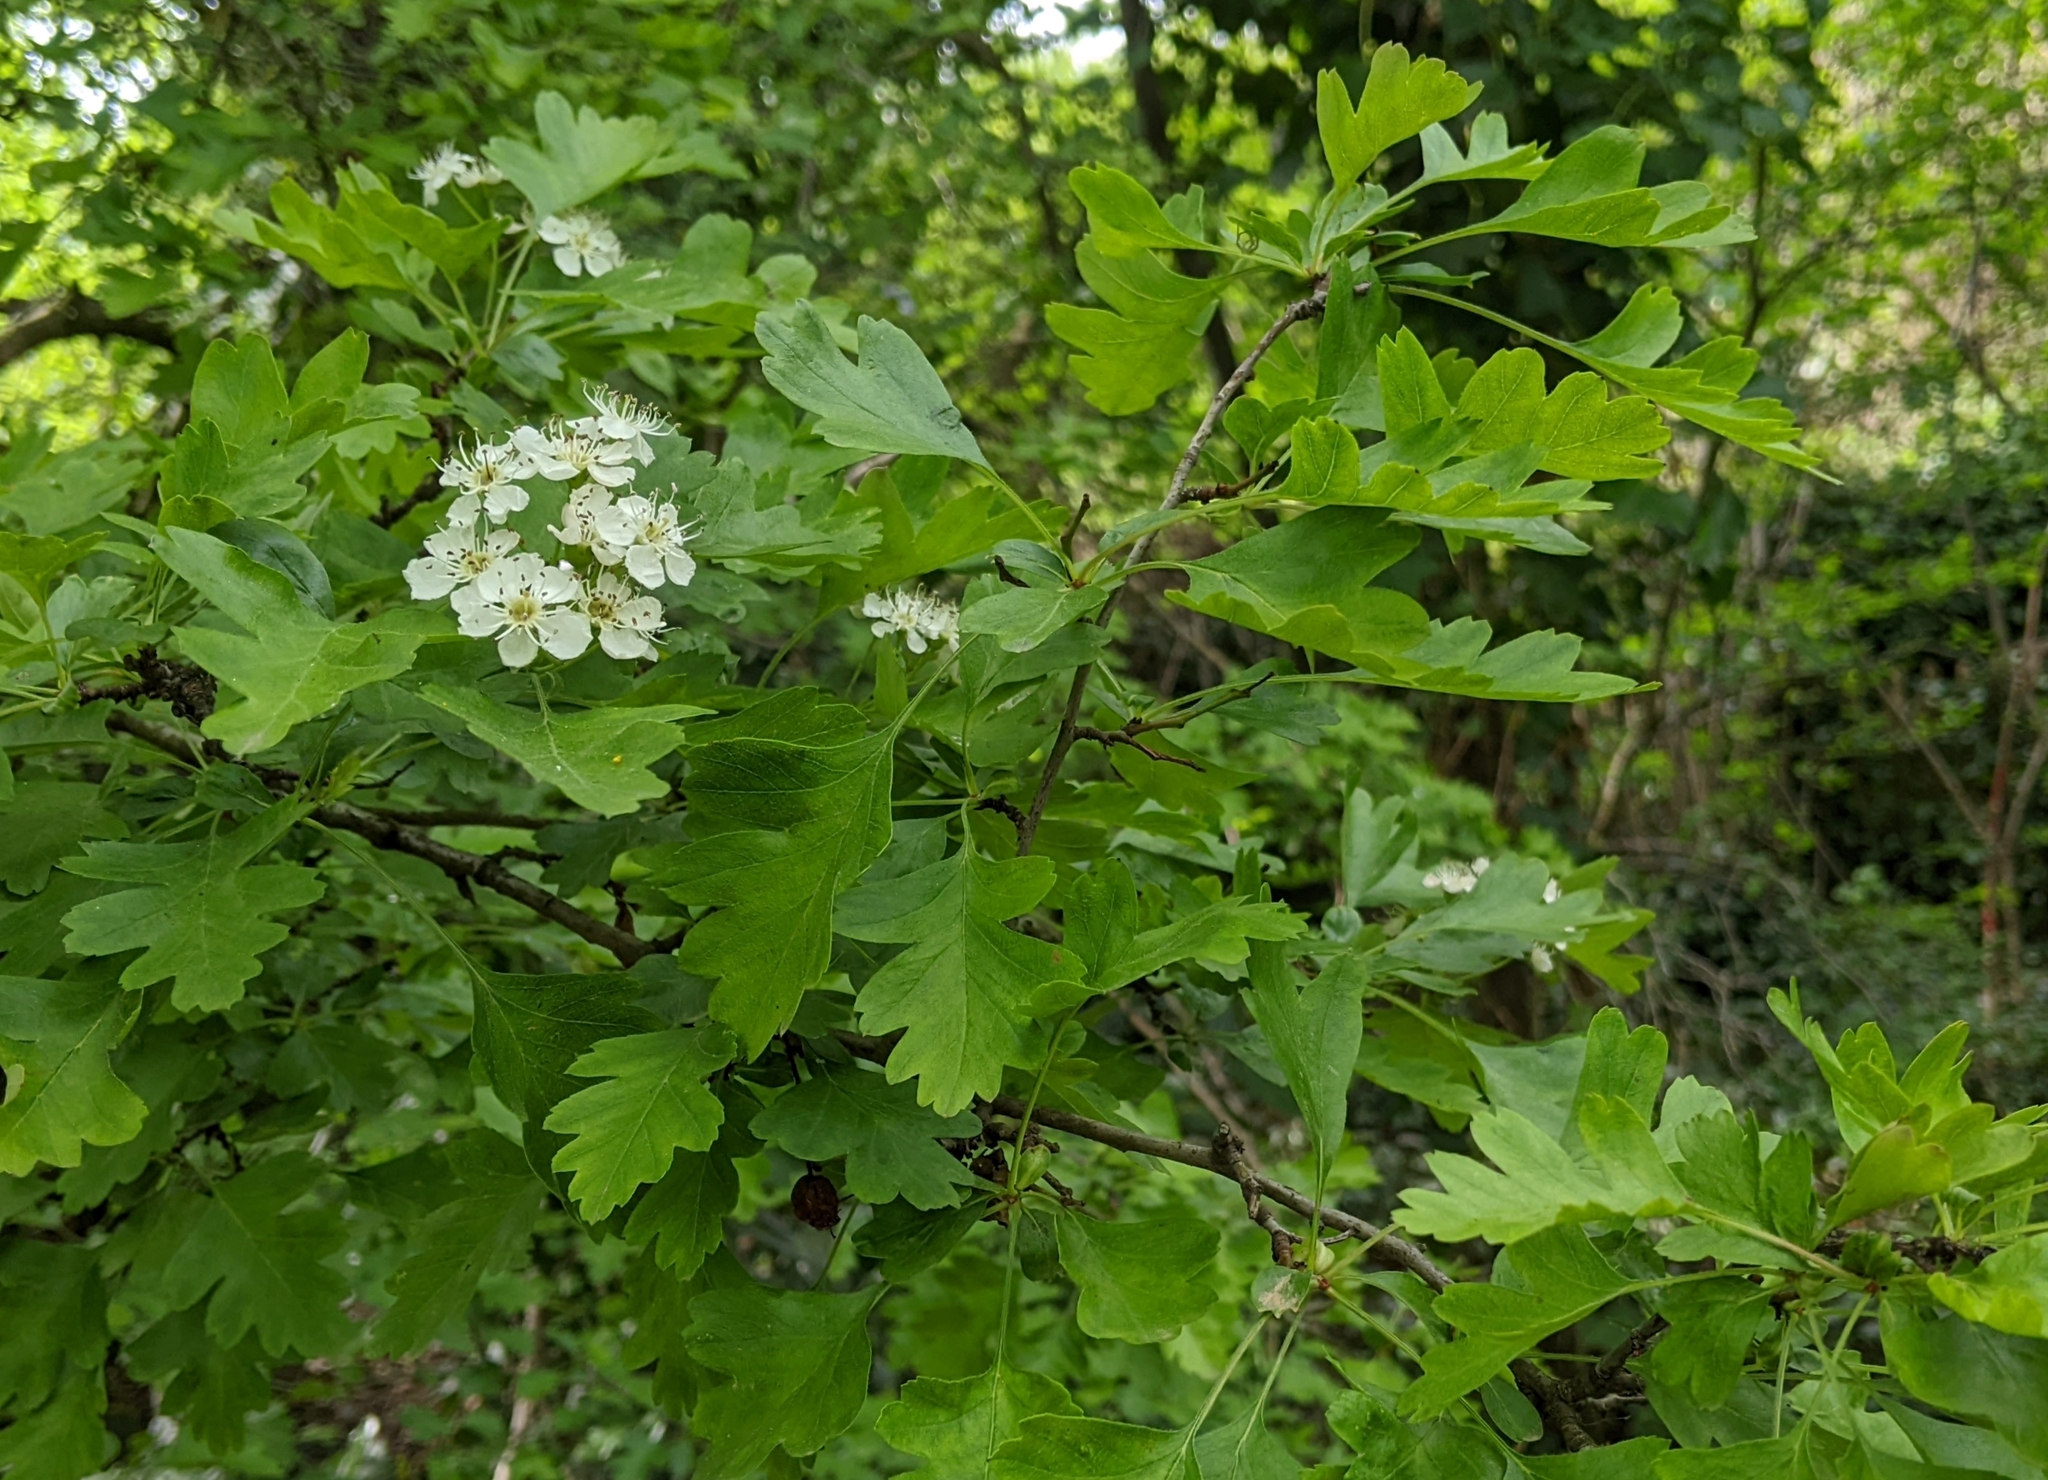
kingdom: Plantae
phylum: Tracheophyta
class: Magnoliopsida
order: Rosales
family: Rosaceae
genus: Crataegus
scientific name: Crataegus monogyna
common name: Hawthorn
